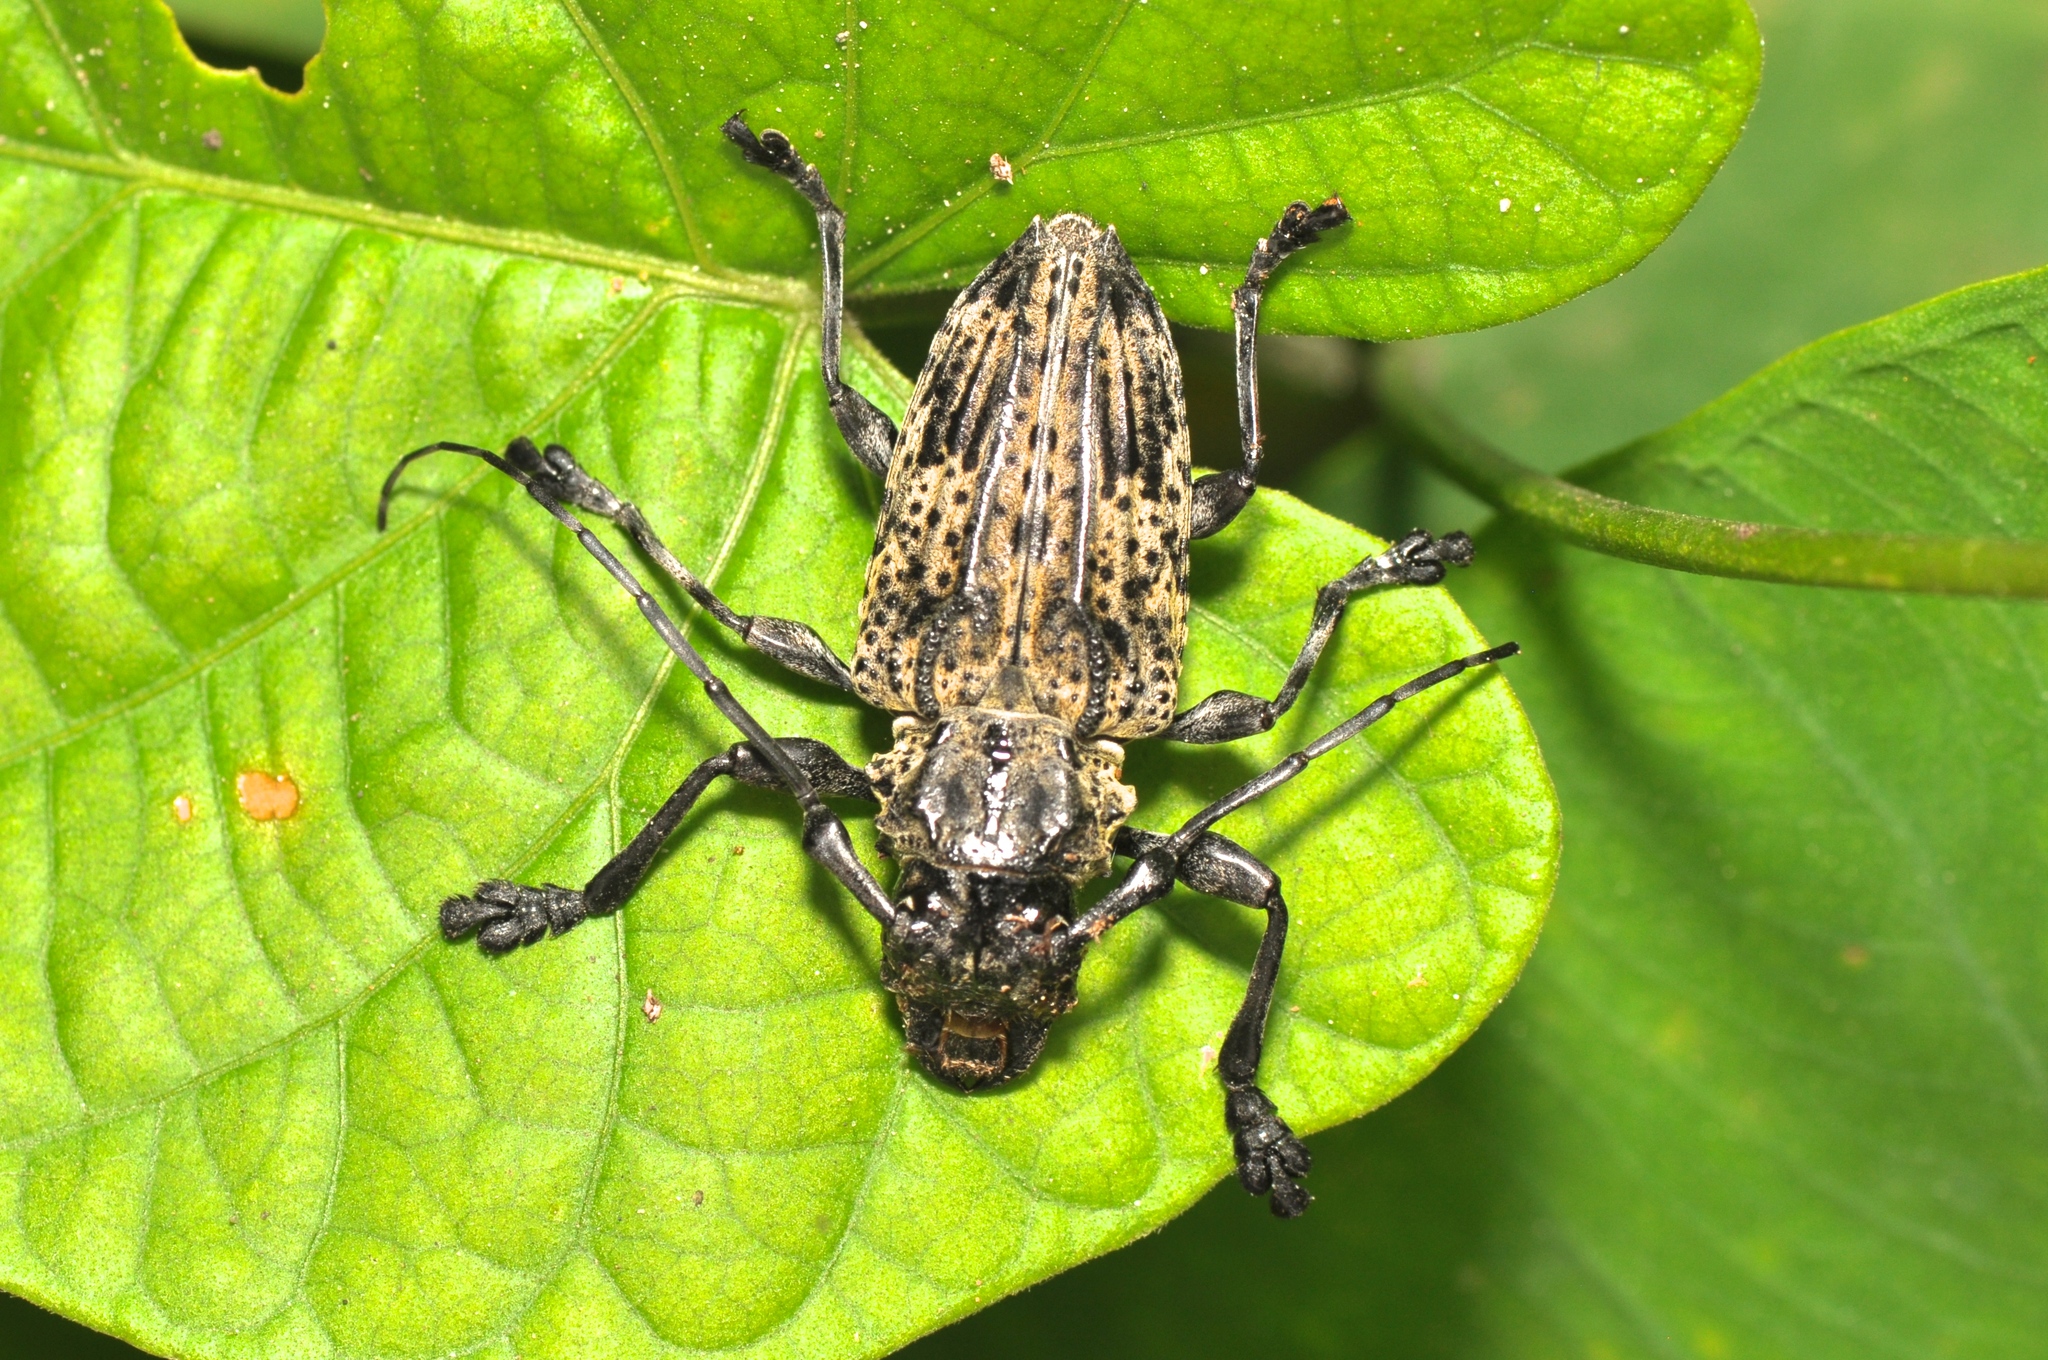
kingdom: Animalia
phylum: Arthropoda
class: Insecta
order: Coleoptera
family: Cerambycidae
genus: Steirastoma
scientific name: Steirastoma breve
